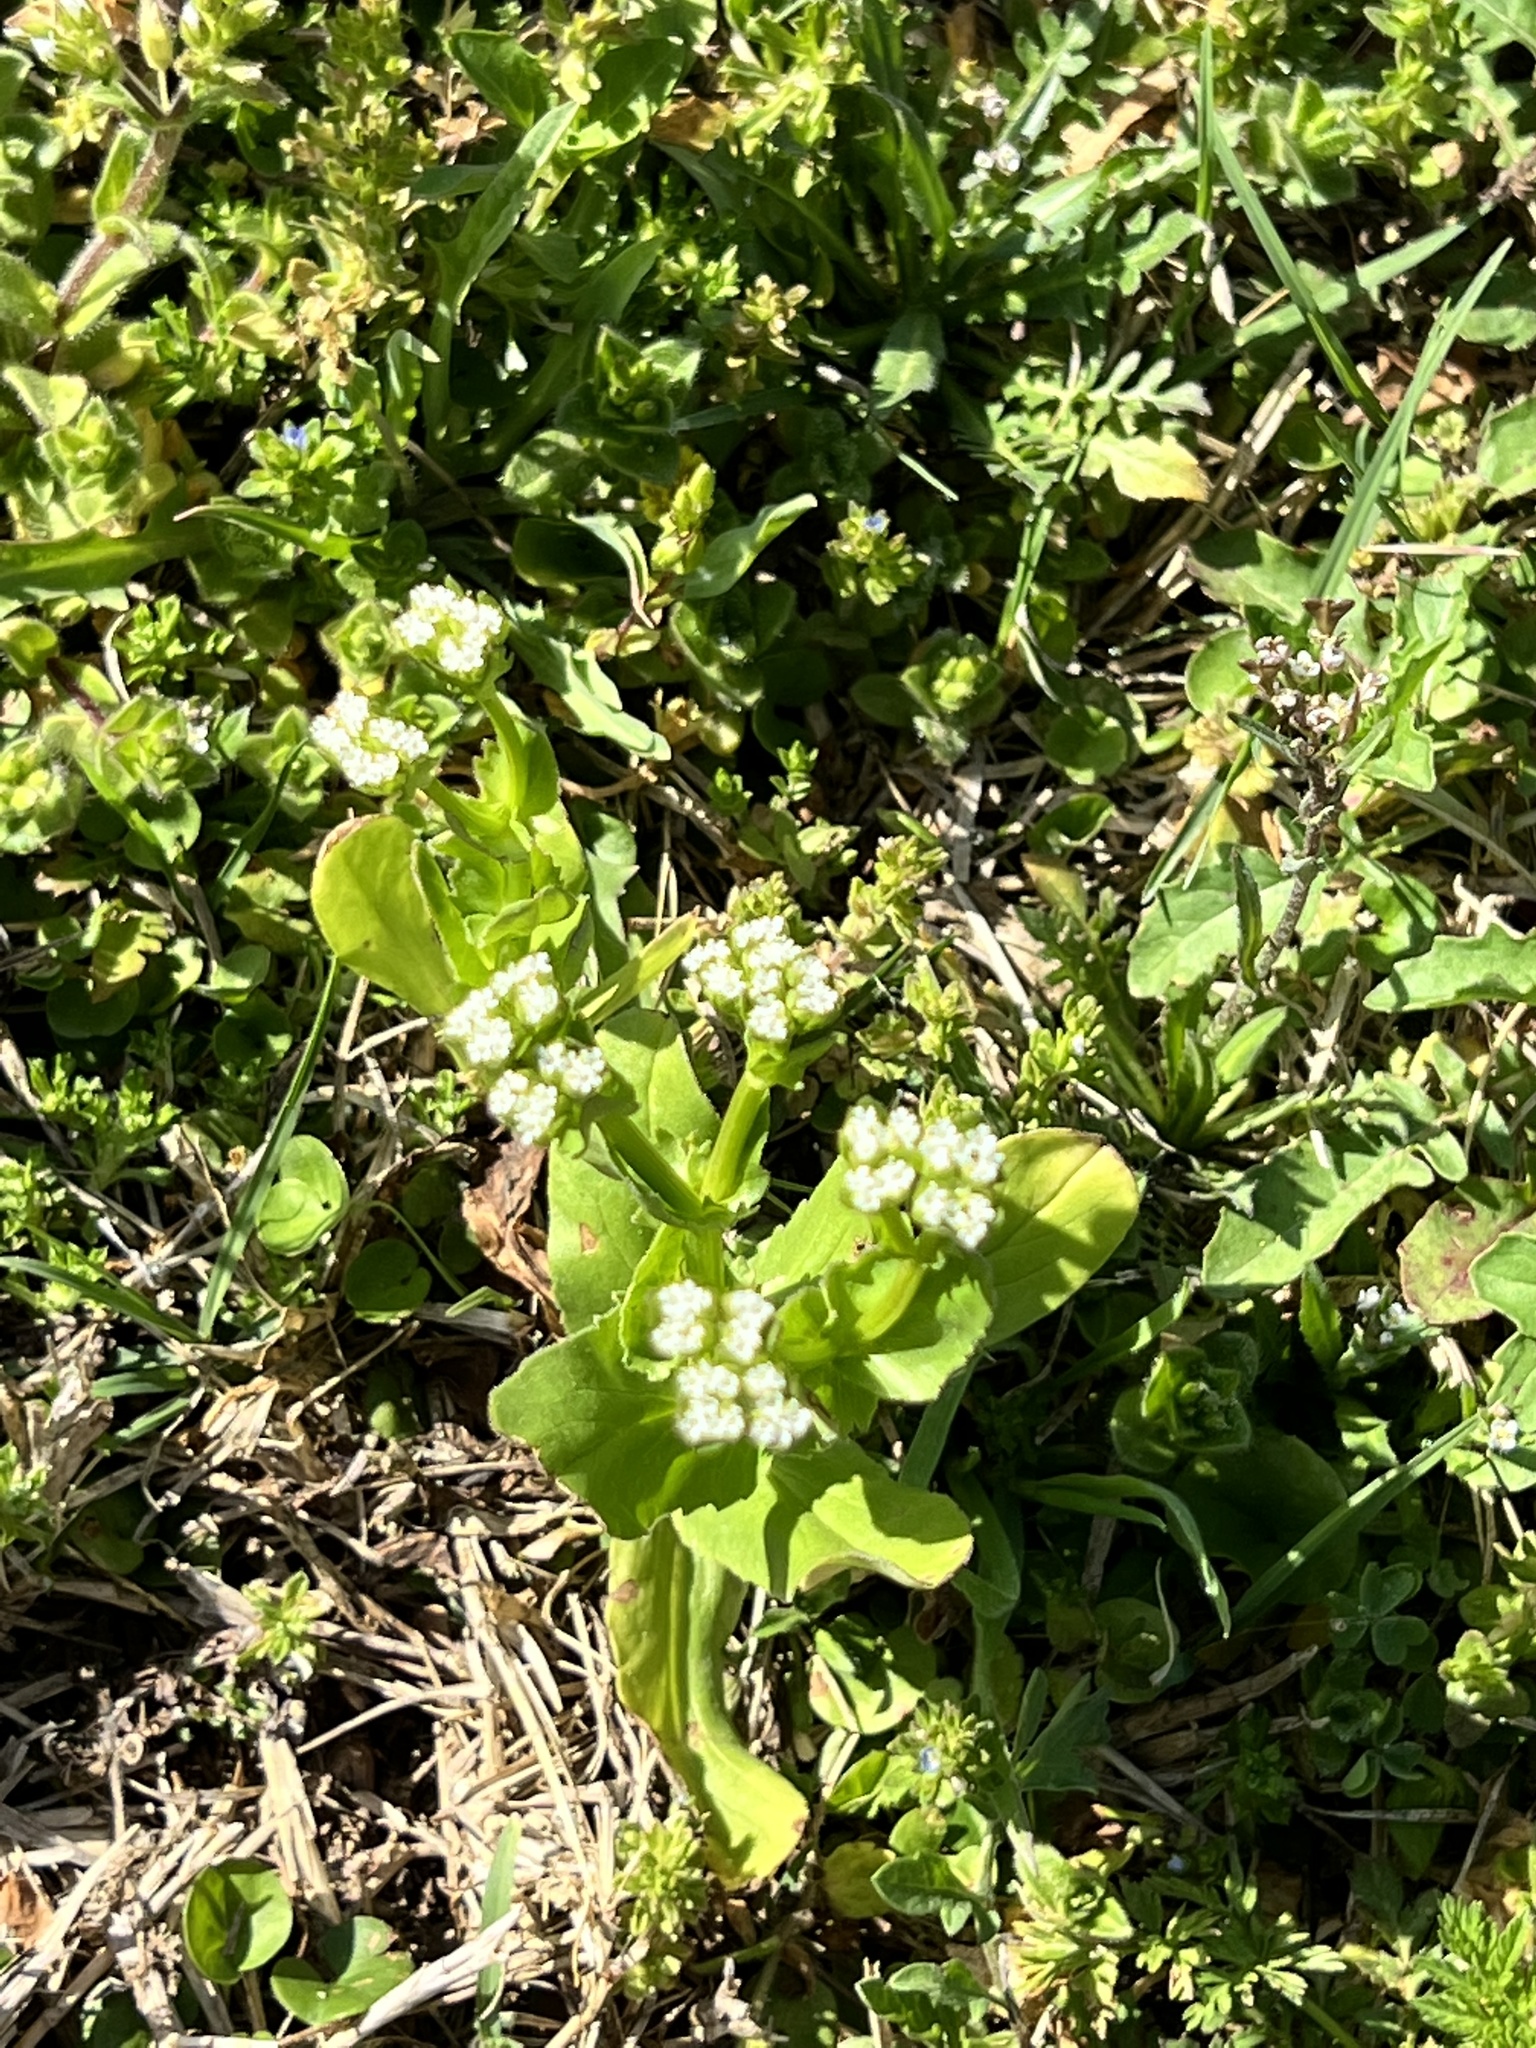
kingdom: Plantae
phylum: Tracheophyta
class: Magnoliopsida
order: Dipsacales
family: Caprifoliaceae
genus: Valerianella
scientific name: Valerianella radiata
